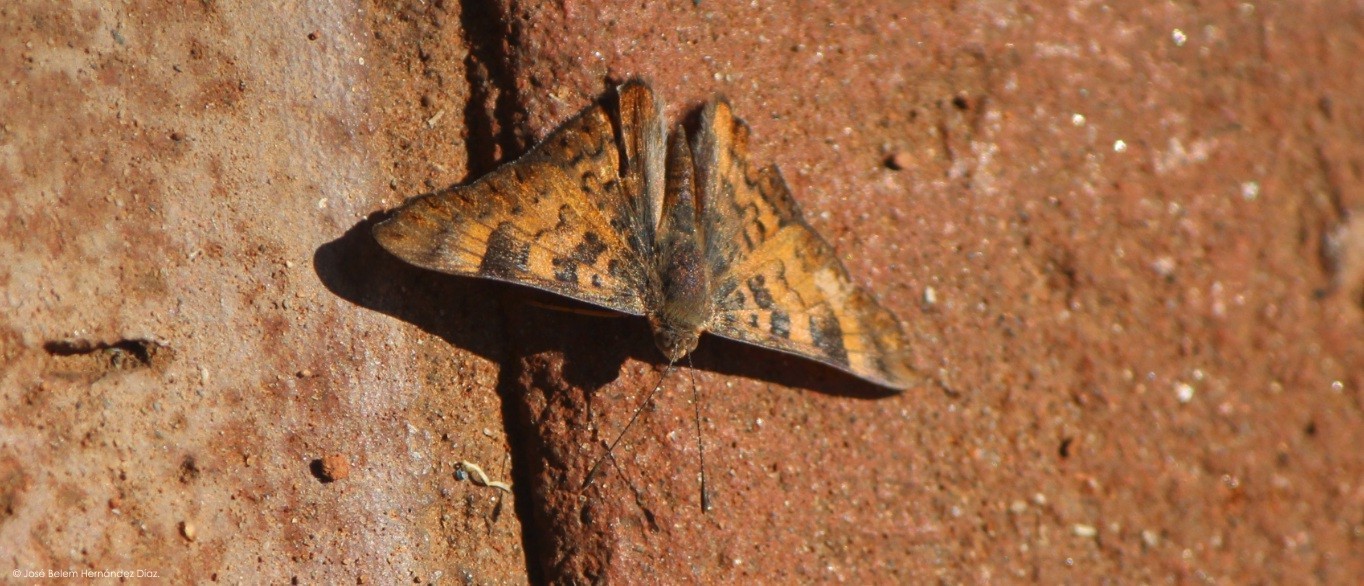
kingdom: Animalia
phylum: Arthropoda
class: Insecta
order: Lepidoptera
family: Riodinidae
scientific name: Riodinidae
